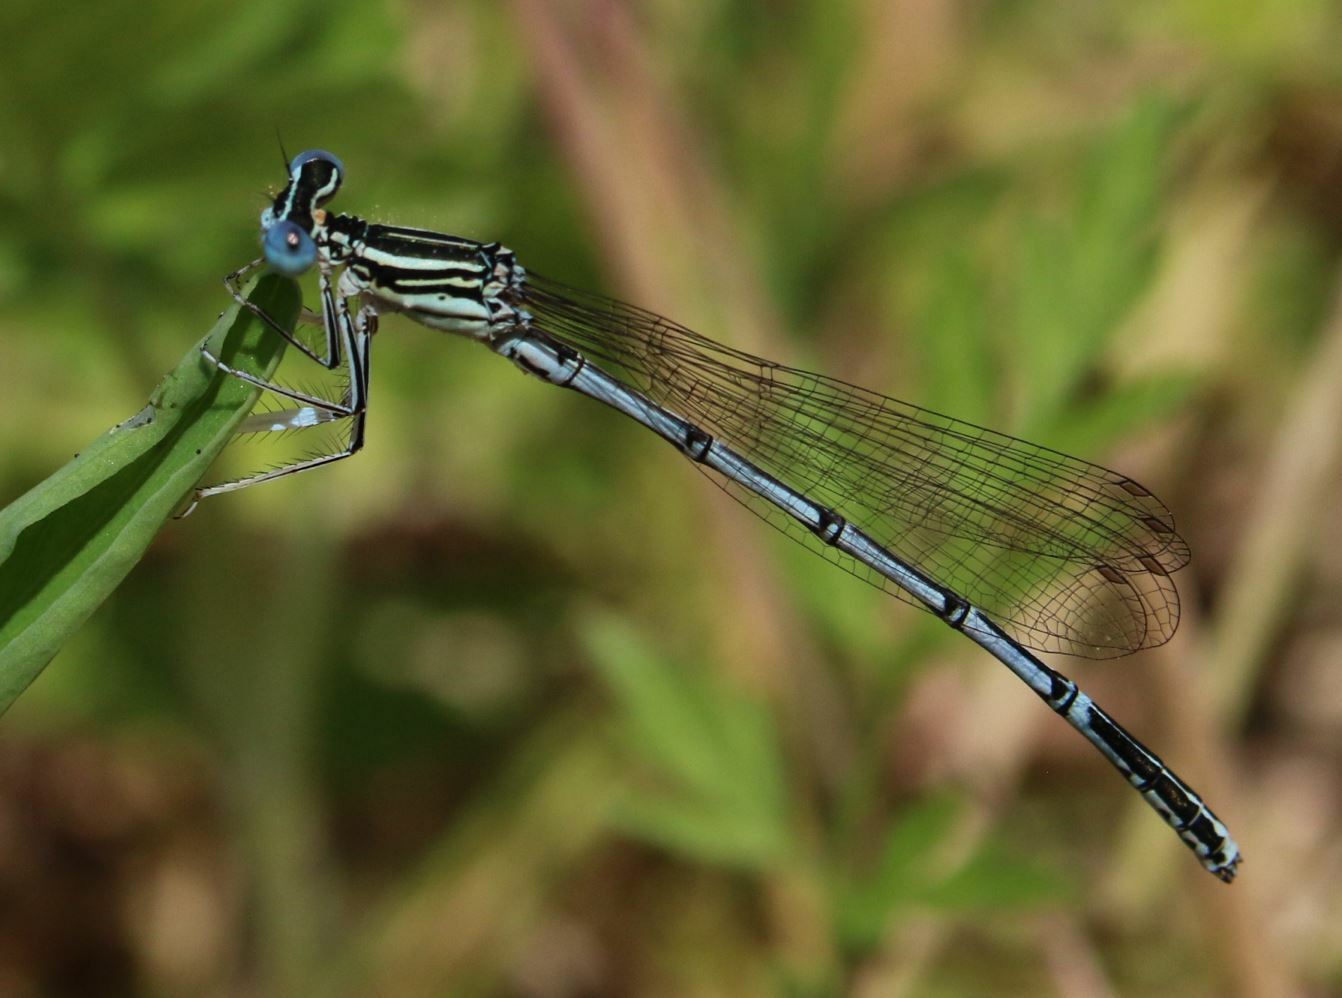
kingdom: Animalia
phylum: Arthropoda
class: Insecta
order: Odonata
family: Platycnemididae
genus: Platycnemis
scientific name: Platycnemis pennipes
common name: White-legged damselfly
